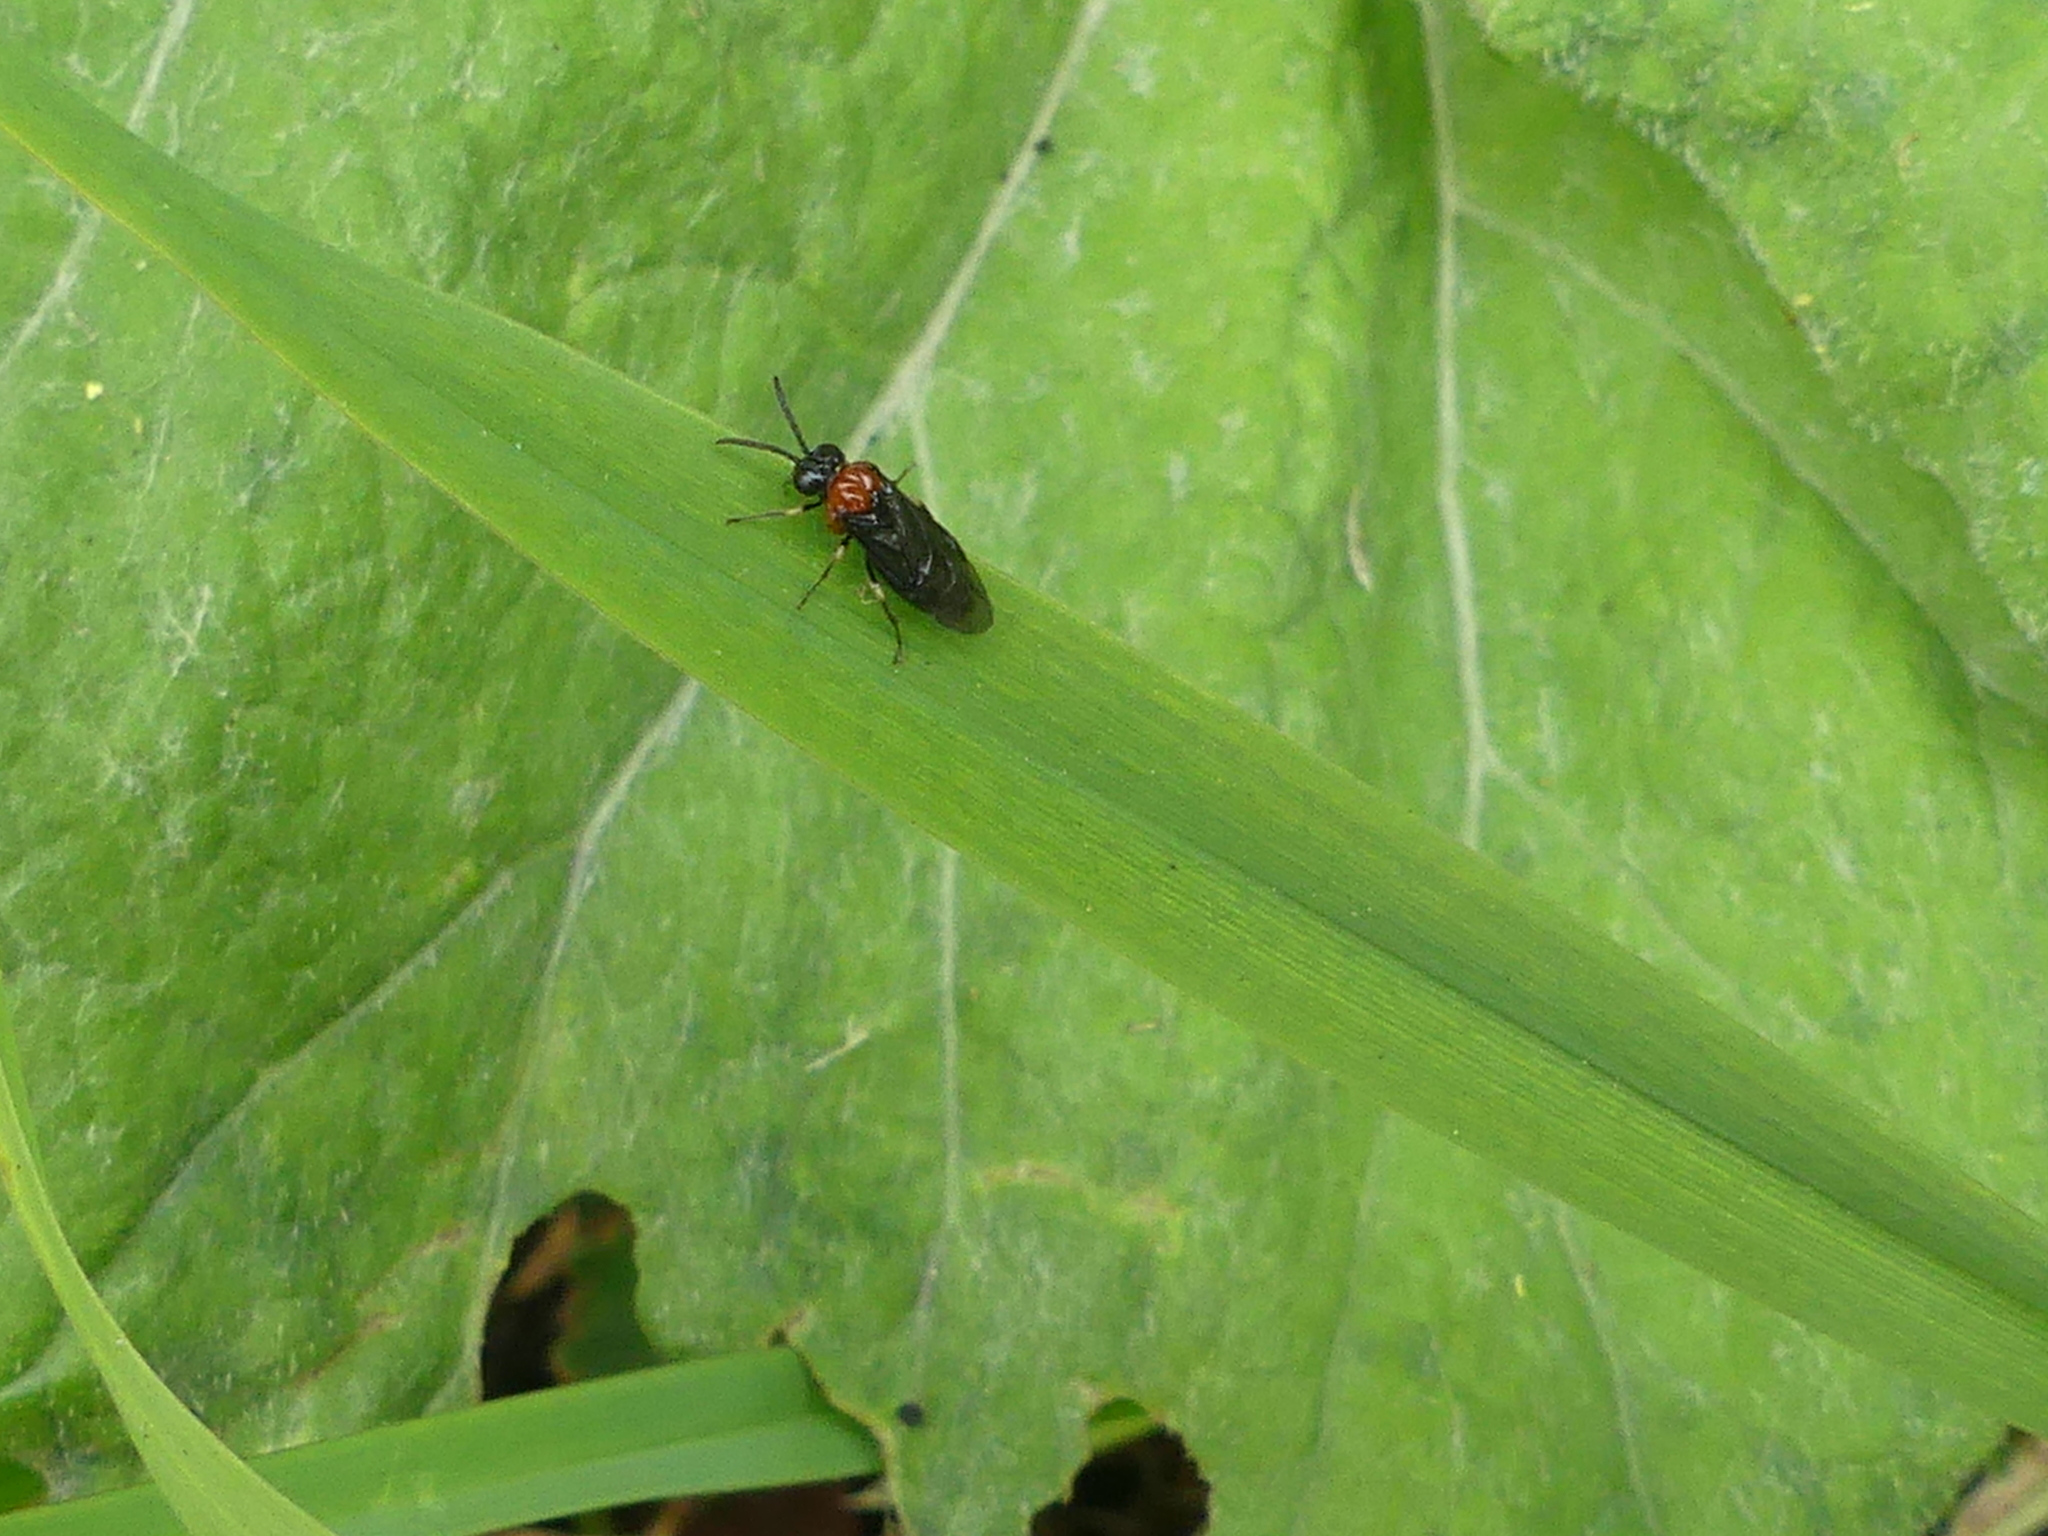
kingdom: Animalia
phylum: Arthropoda
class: Insecta
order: Hymenoptera
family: Tenthredinidae
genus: Eutomostethus
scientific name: Eutomostethus ephippium
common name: Tenthredid wasp
